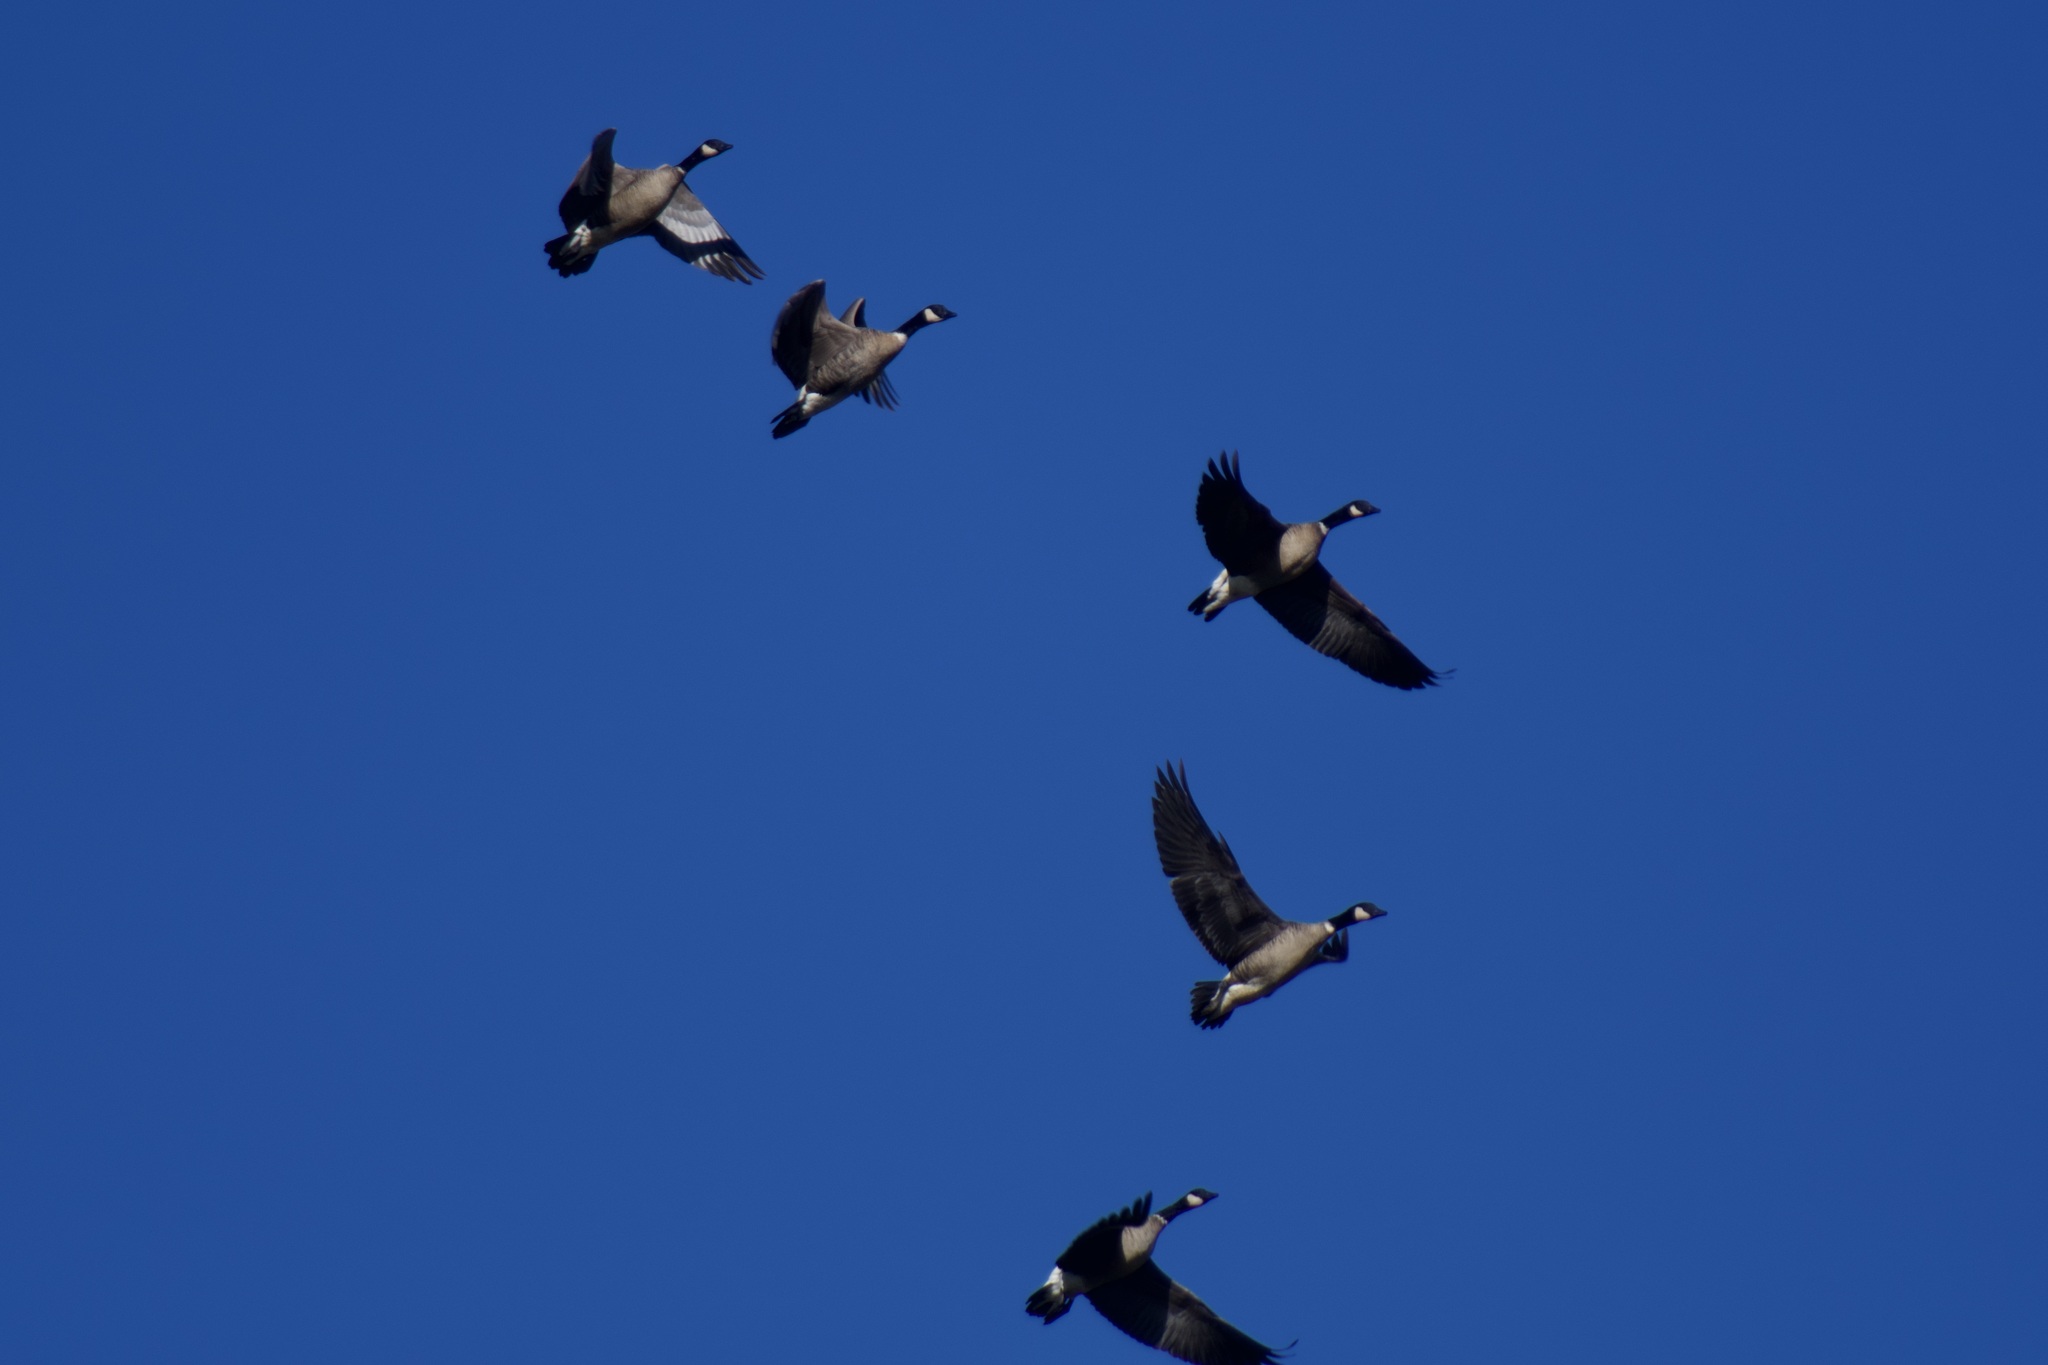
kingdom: Animalia
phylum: Chordata
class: Aves
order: Anseriformes
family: Anatidae
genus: Branta
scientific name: Branta hutchinsii
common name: Cackling goose
